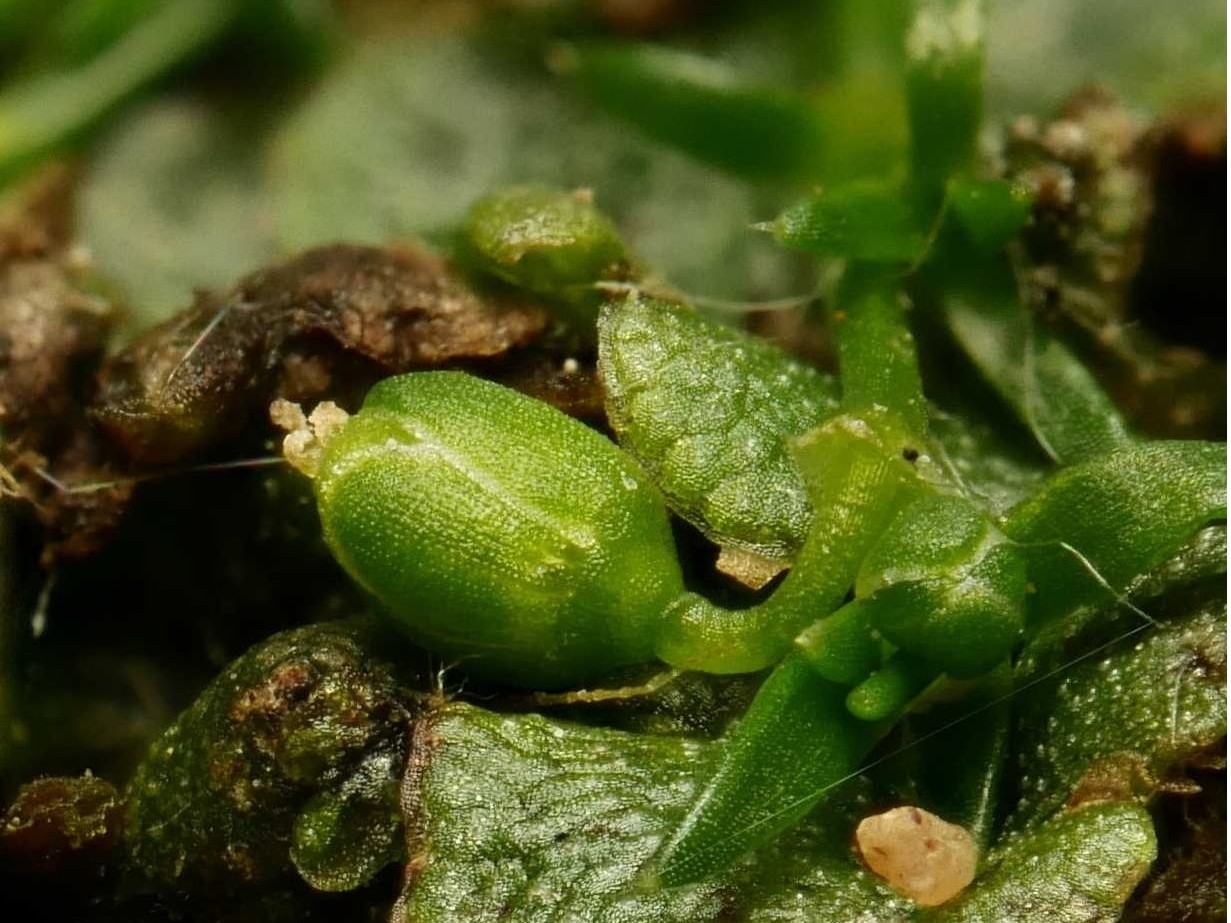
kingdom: Plantae
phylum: Tracheophyta
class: Magnoliopsida
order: Caryophyllales
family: Caryophyllaceae
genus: Sagina
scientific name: Sagina procumbens
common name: Procumbent pearlwort
